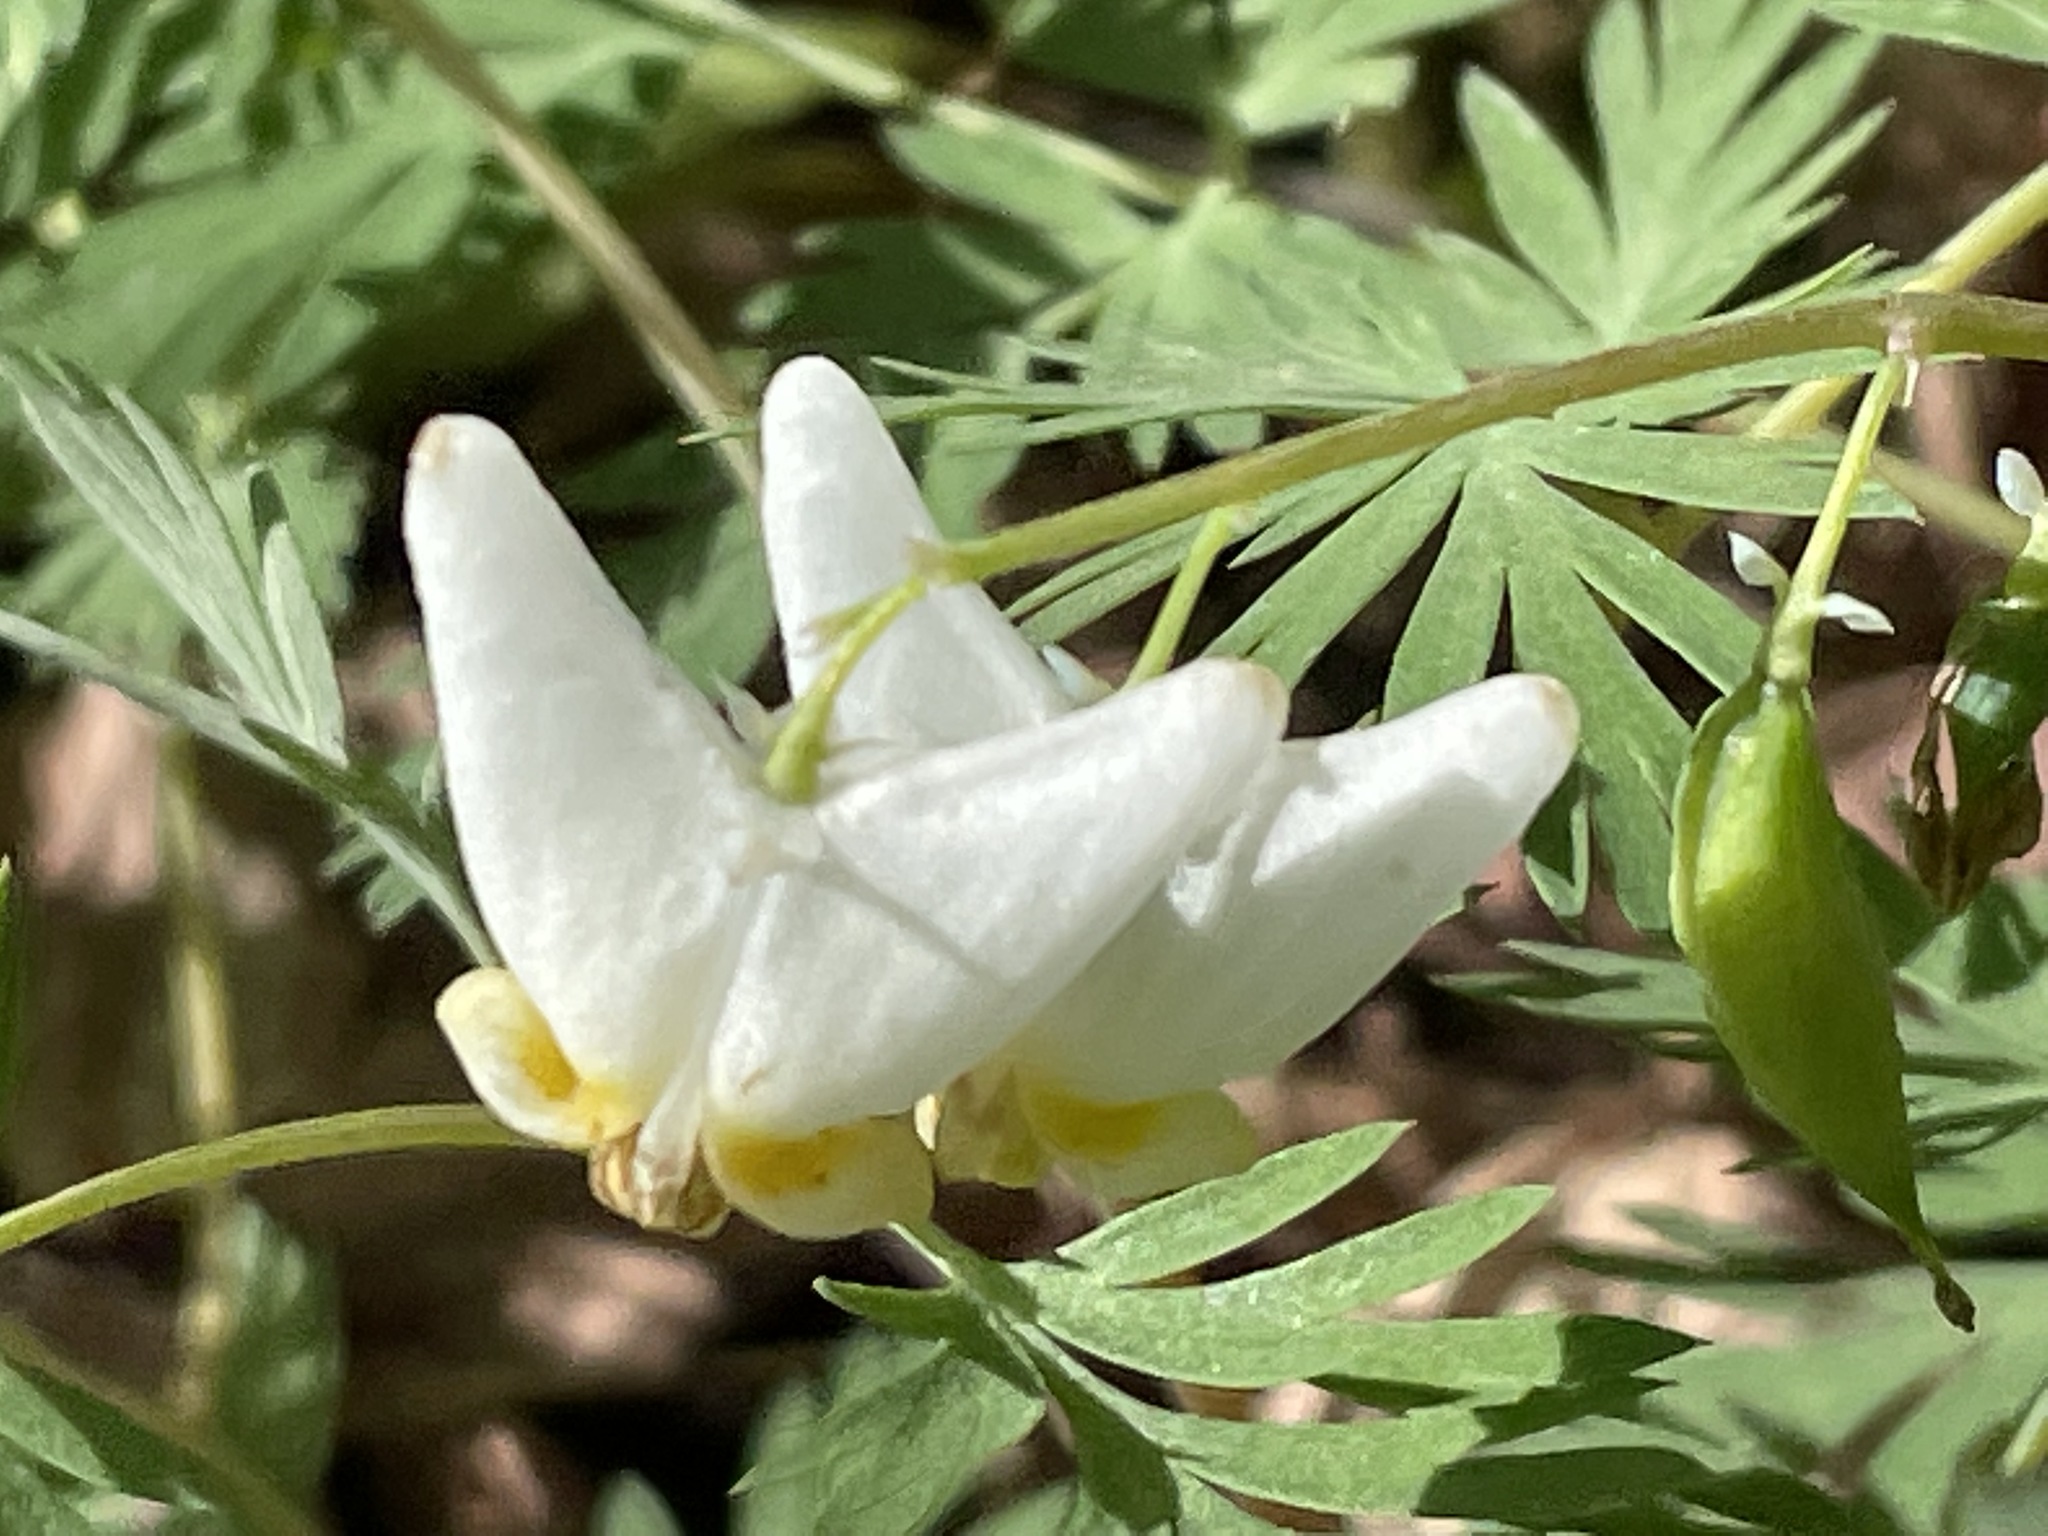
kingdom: Plantae
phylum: Tracheophyta
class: Magnoliopsida
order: Ranunculales
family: Papaveraceae
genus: Dicentra
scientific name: Dicentra cucullaria
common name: Dutchman's breeches
